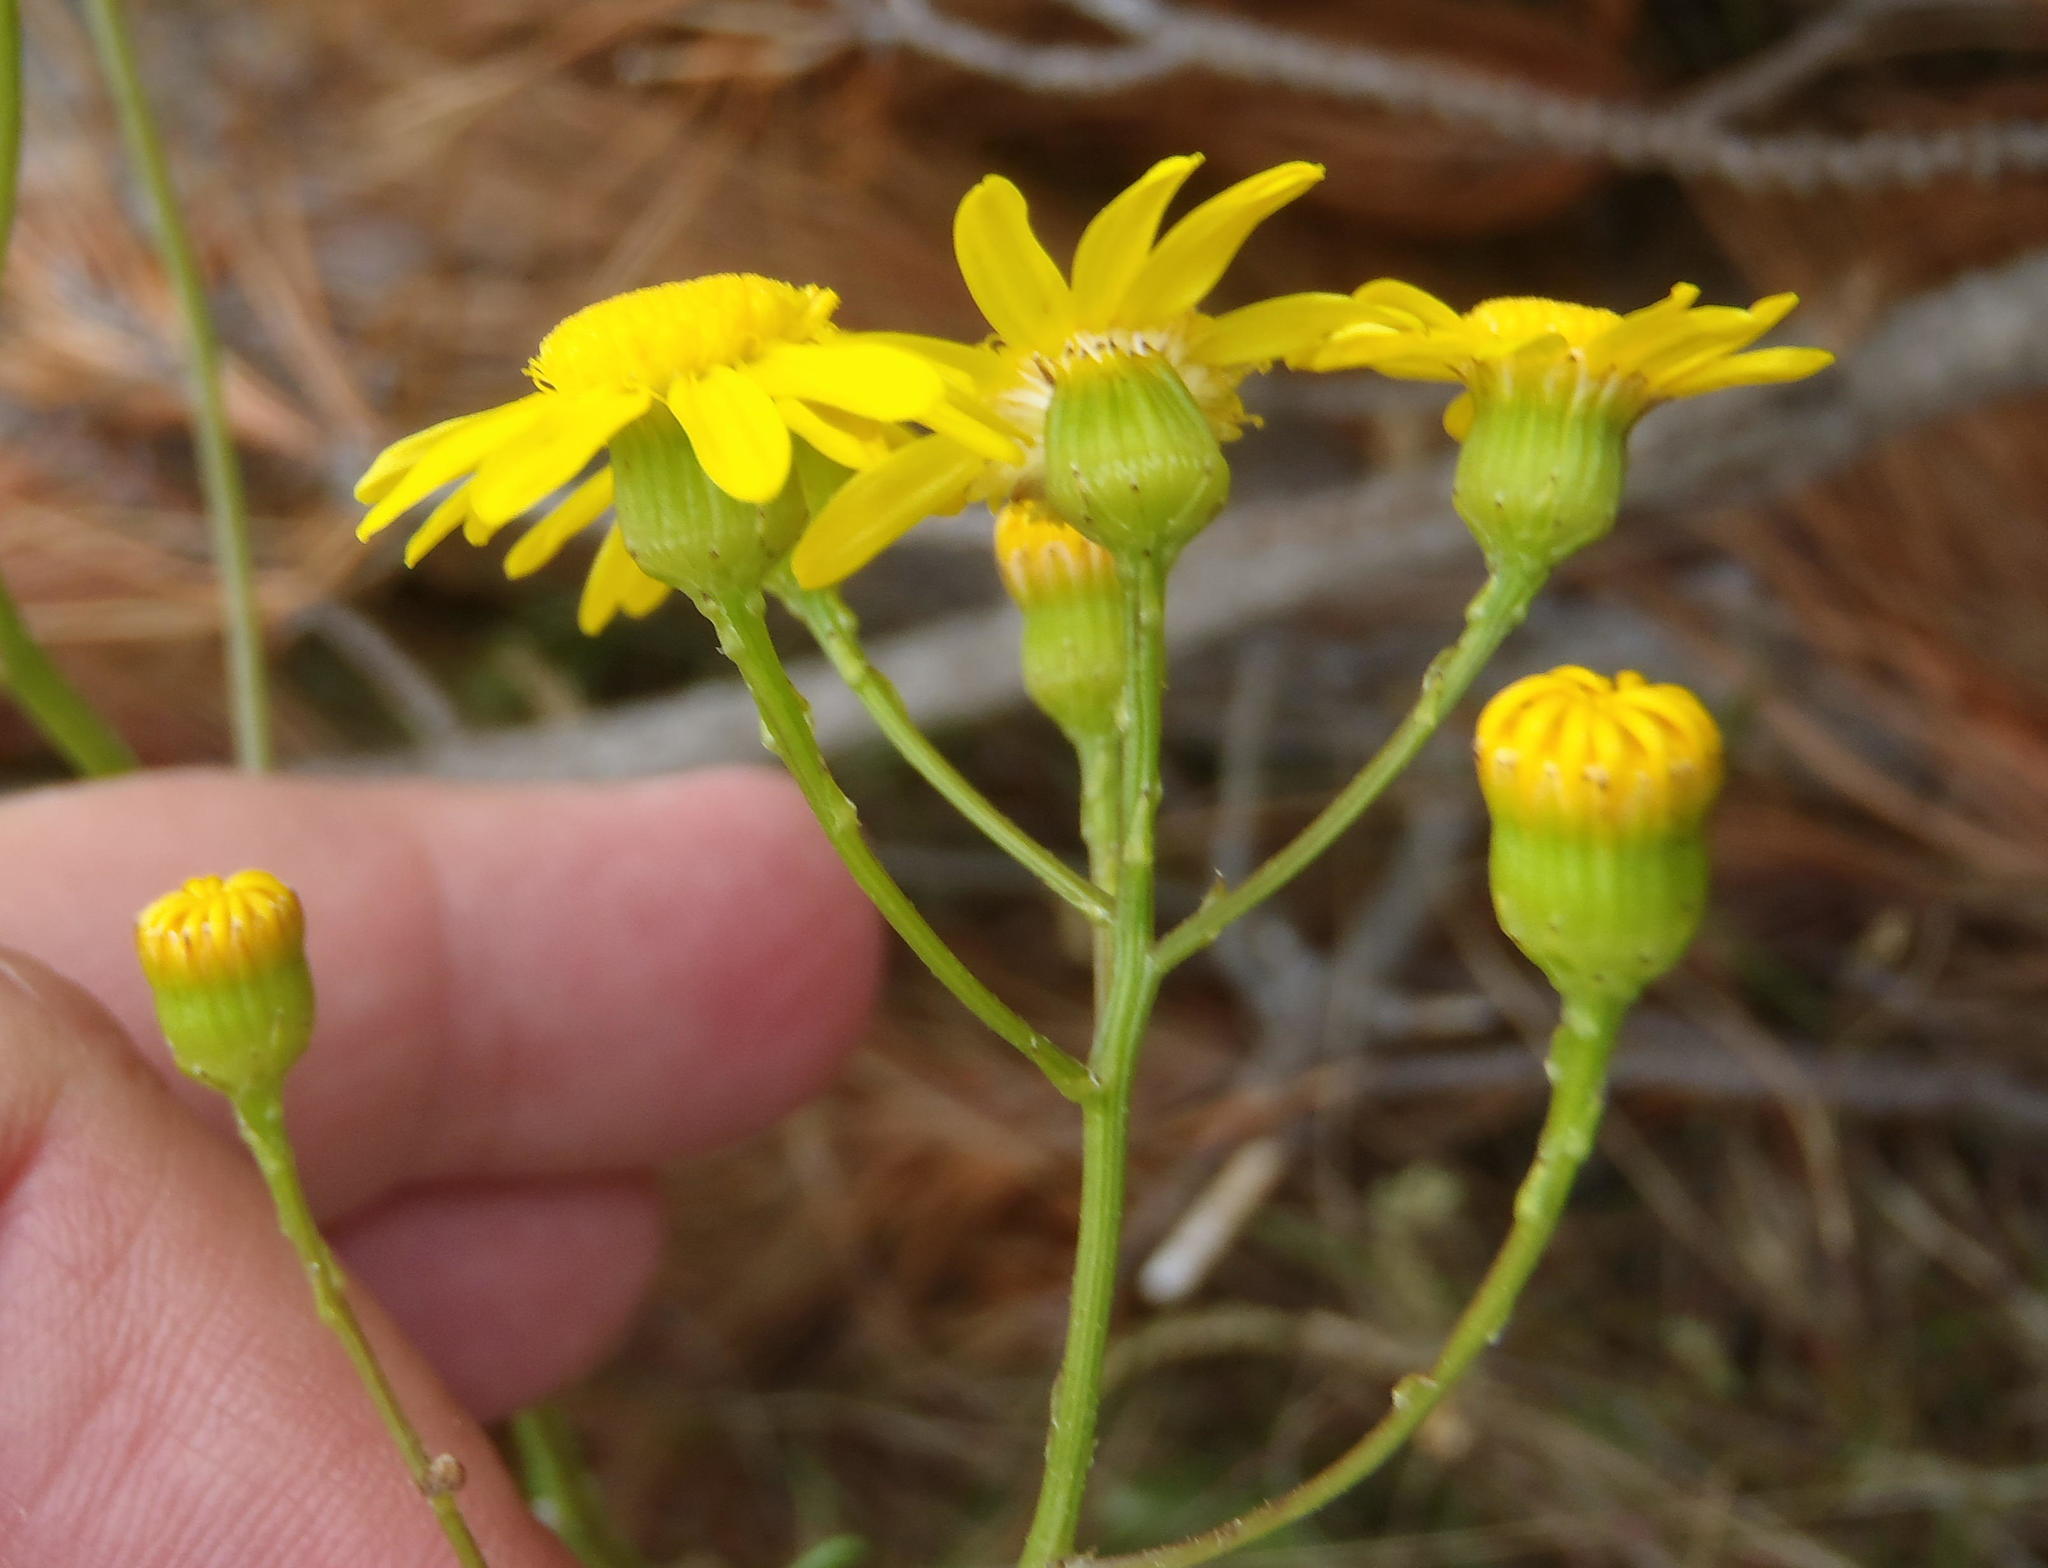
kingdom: Plantae
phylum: Tracheophyta
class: Magnoliopsida
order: Asterales
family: Asteraceae
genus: Senecio
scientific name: Senecio ilicifolius
